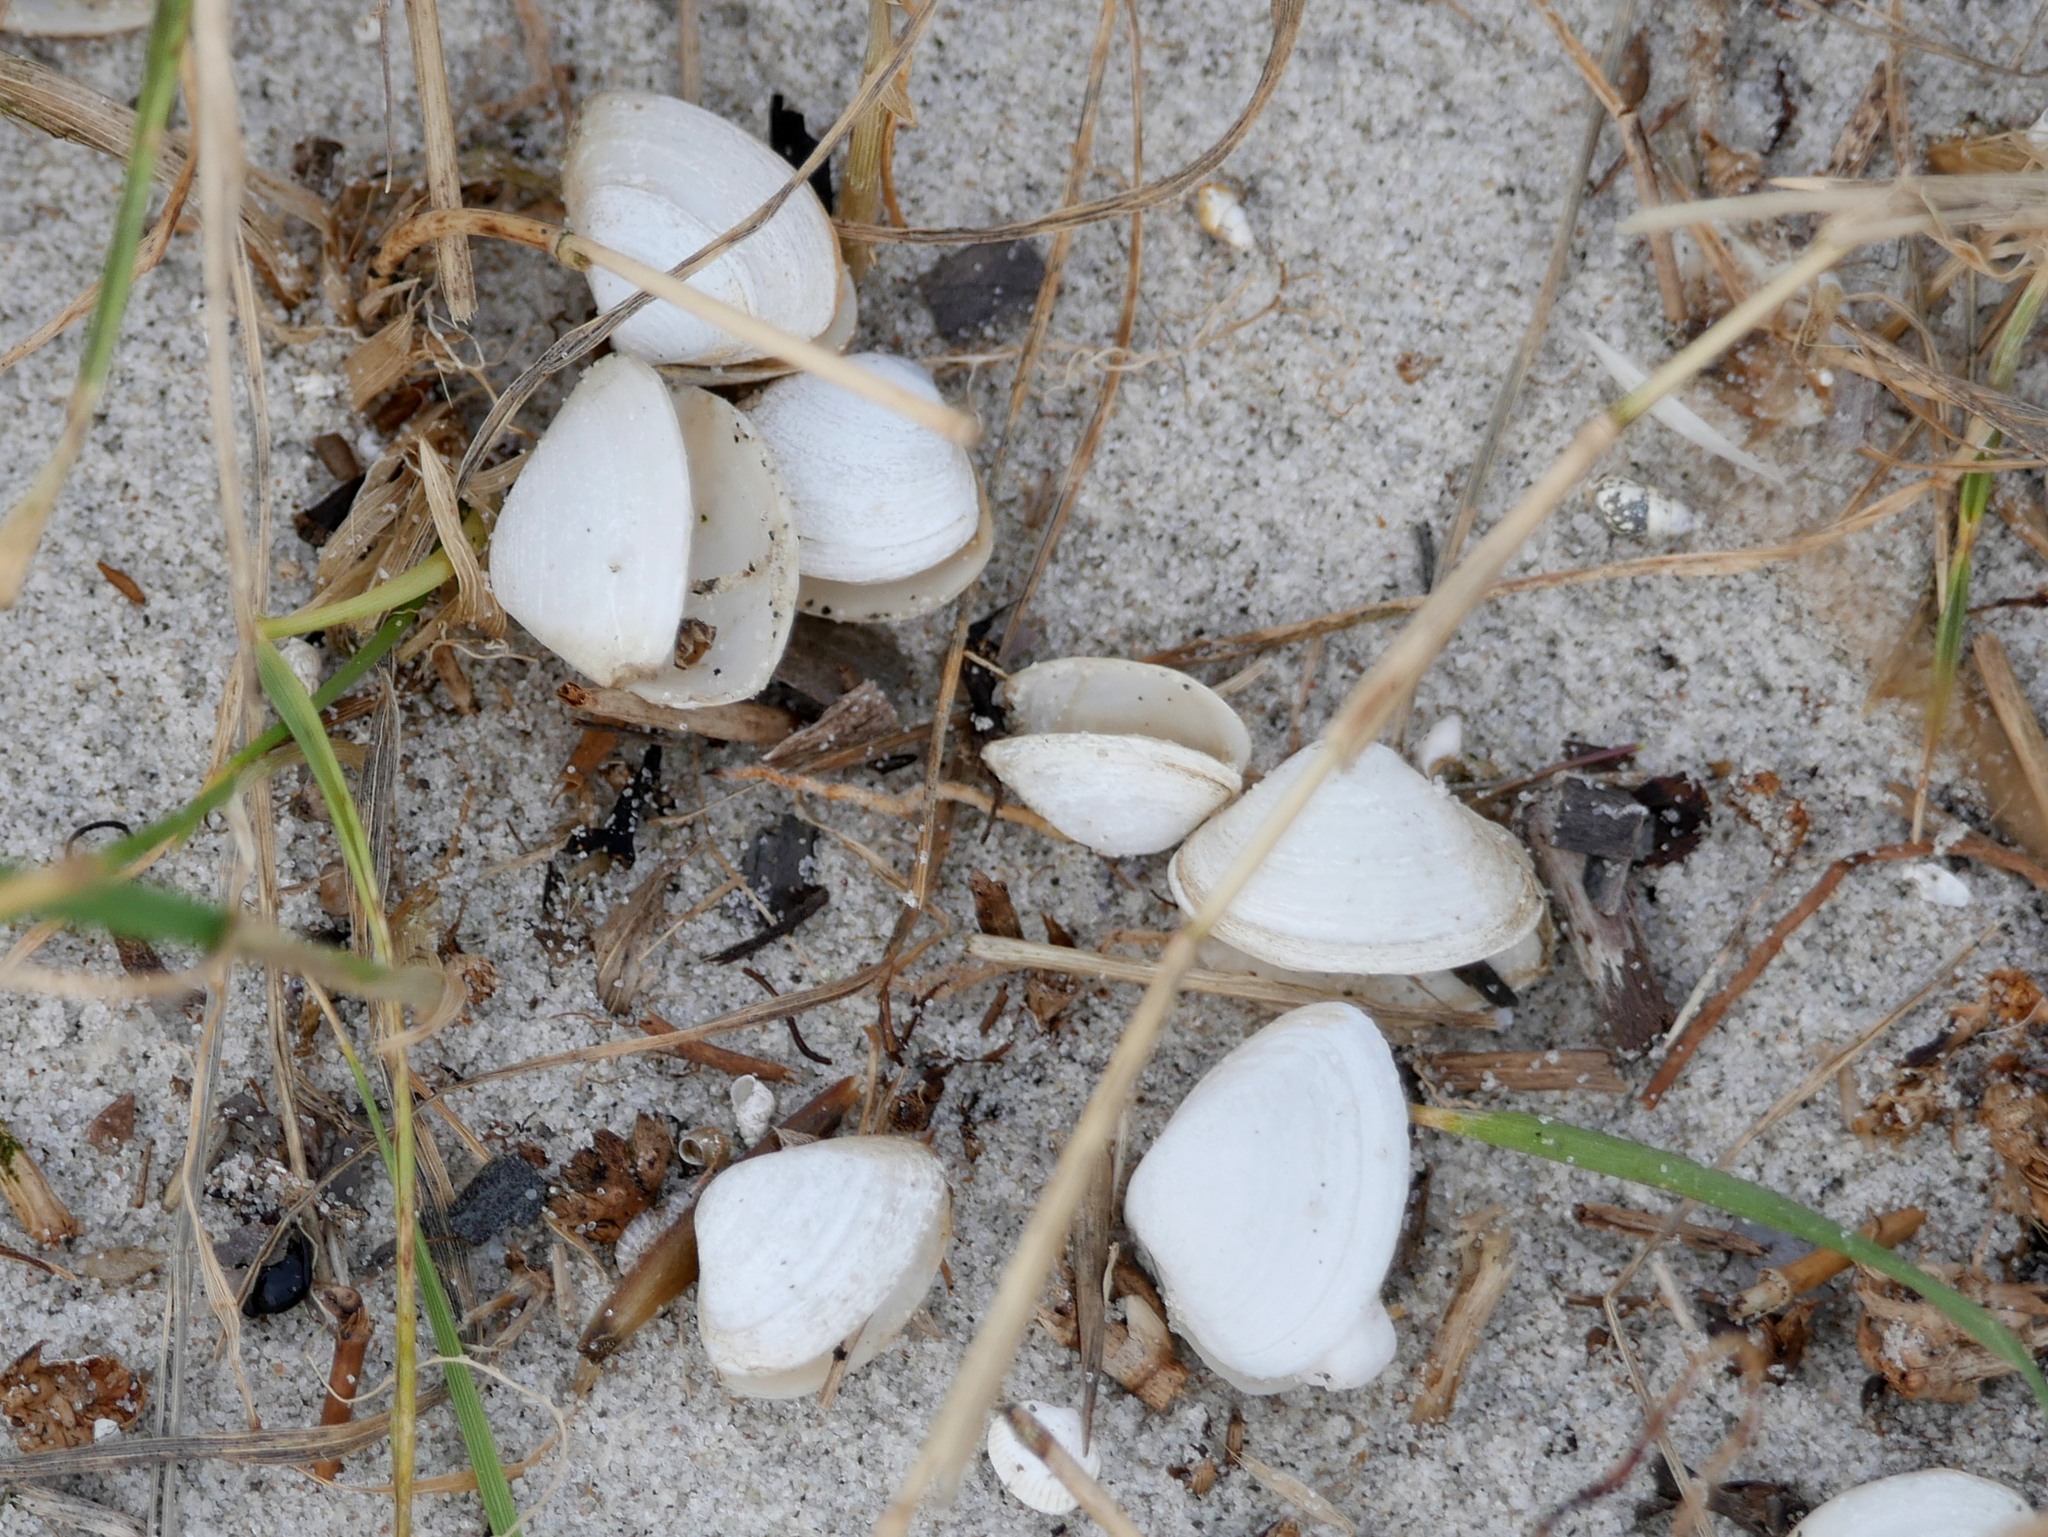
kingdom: Animalia
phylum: Mollusca
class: Bivalvia
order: Venerida
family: Mactridae
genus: Spisula
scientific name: Spisula subtruncata
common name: Cut trough shell
